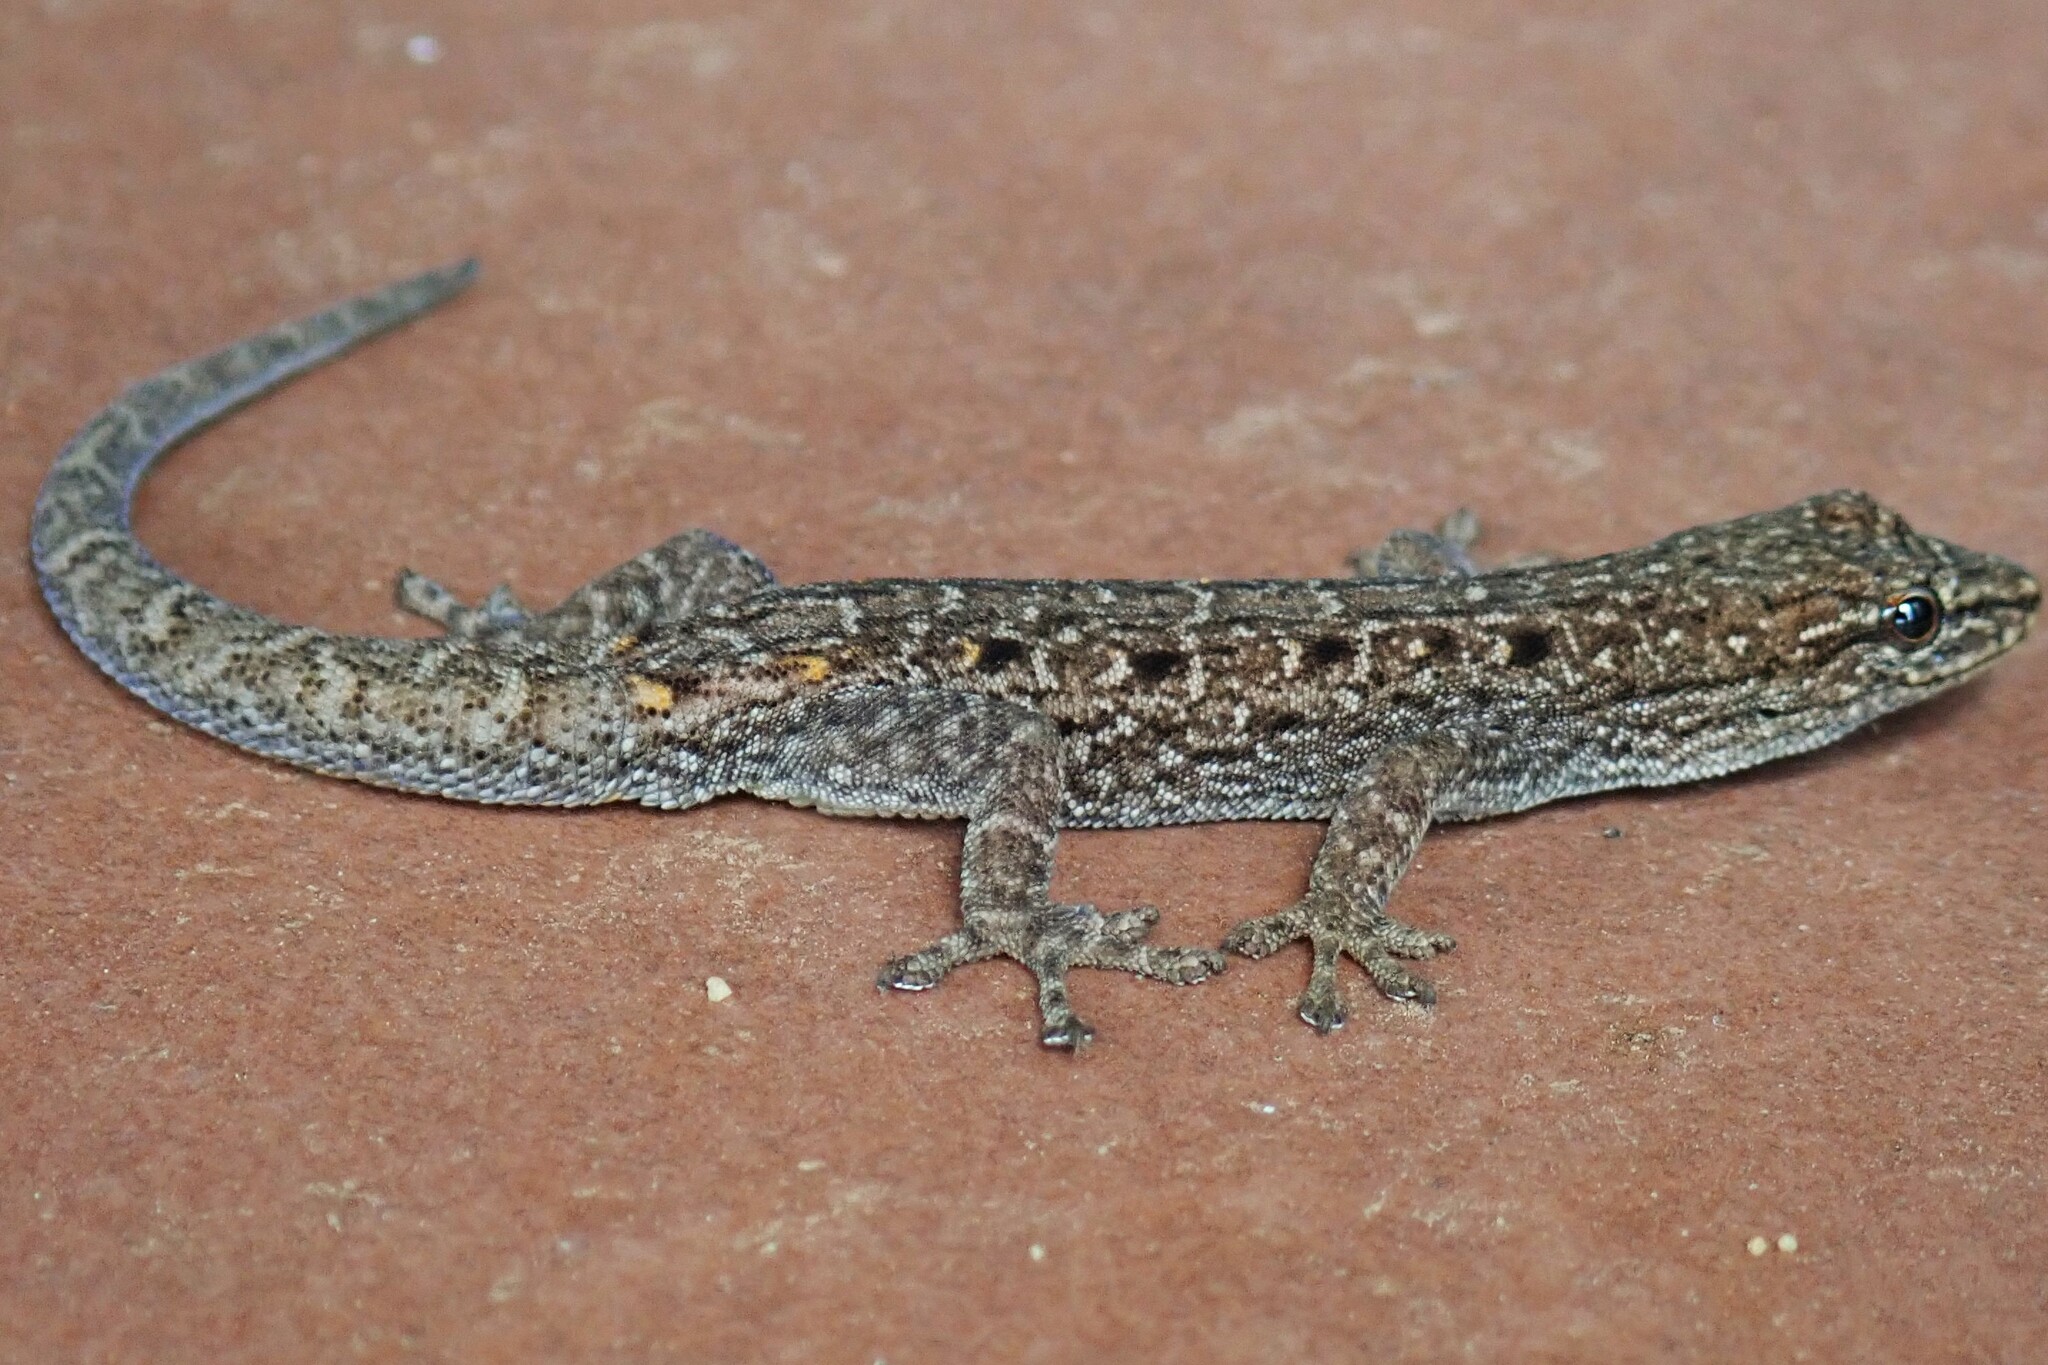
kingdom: Animalia
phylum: Chordata
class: Squamata
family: Gekkonidae
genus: Lygodactylus
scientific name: Lygodactylus nigropunctatus
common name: Black-spotted dwarf gecko
